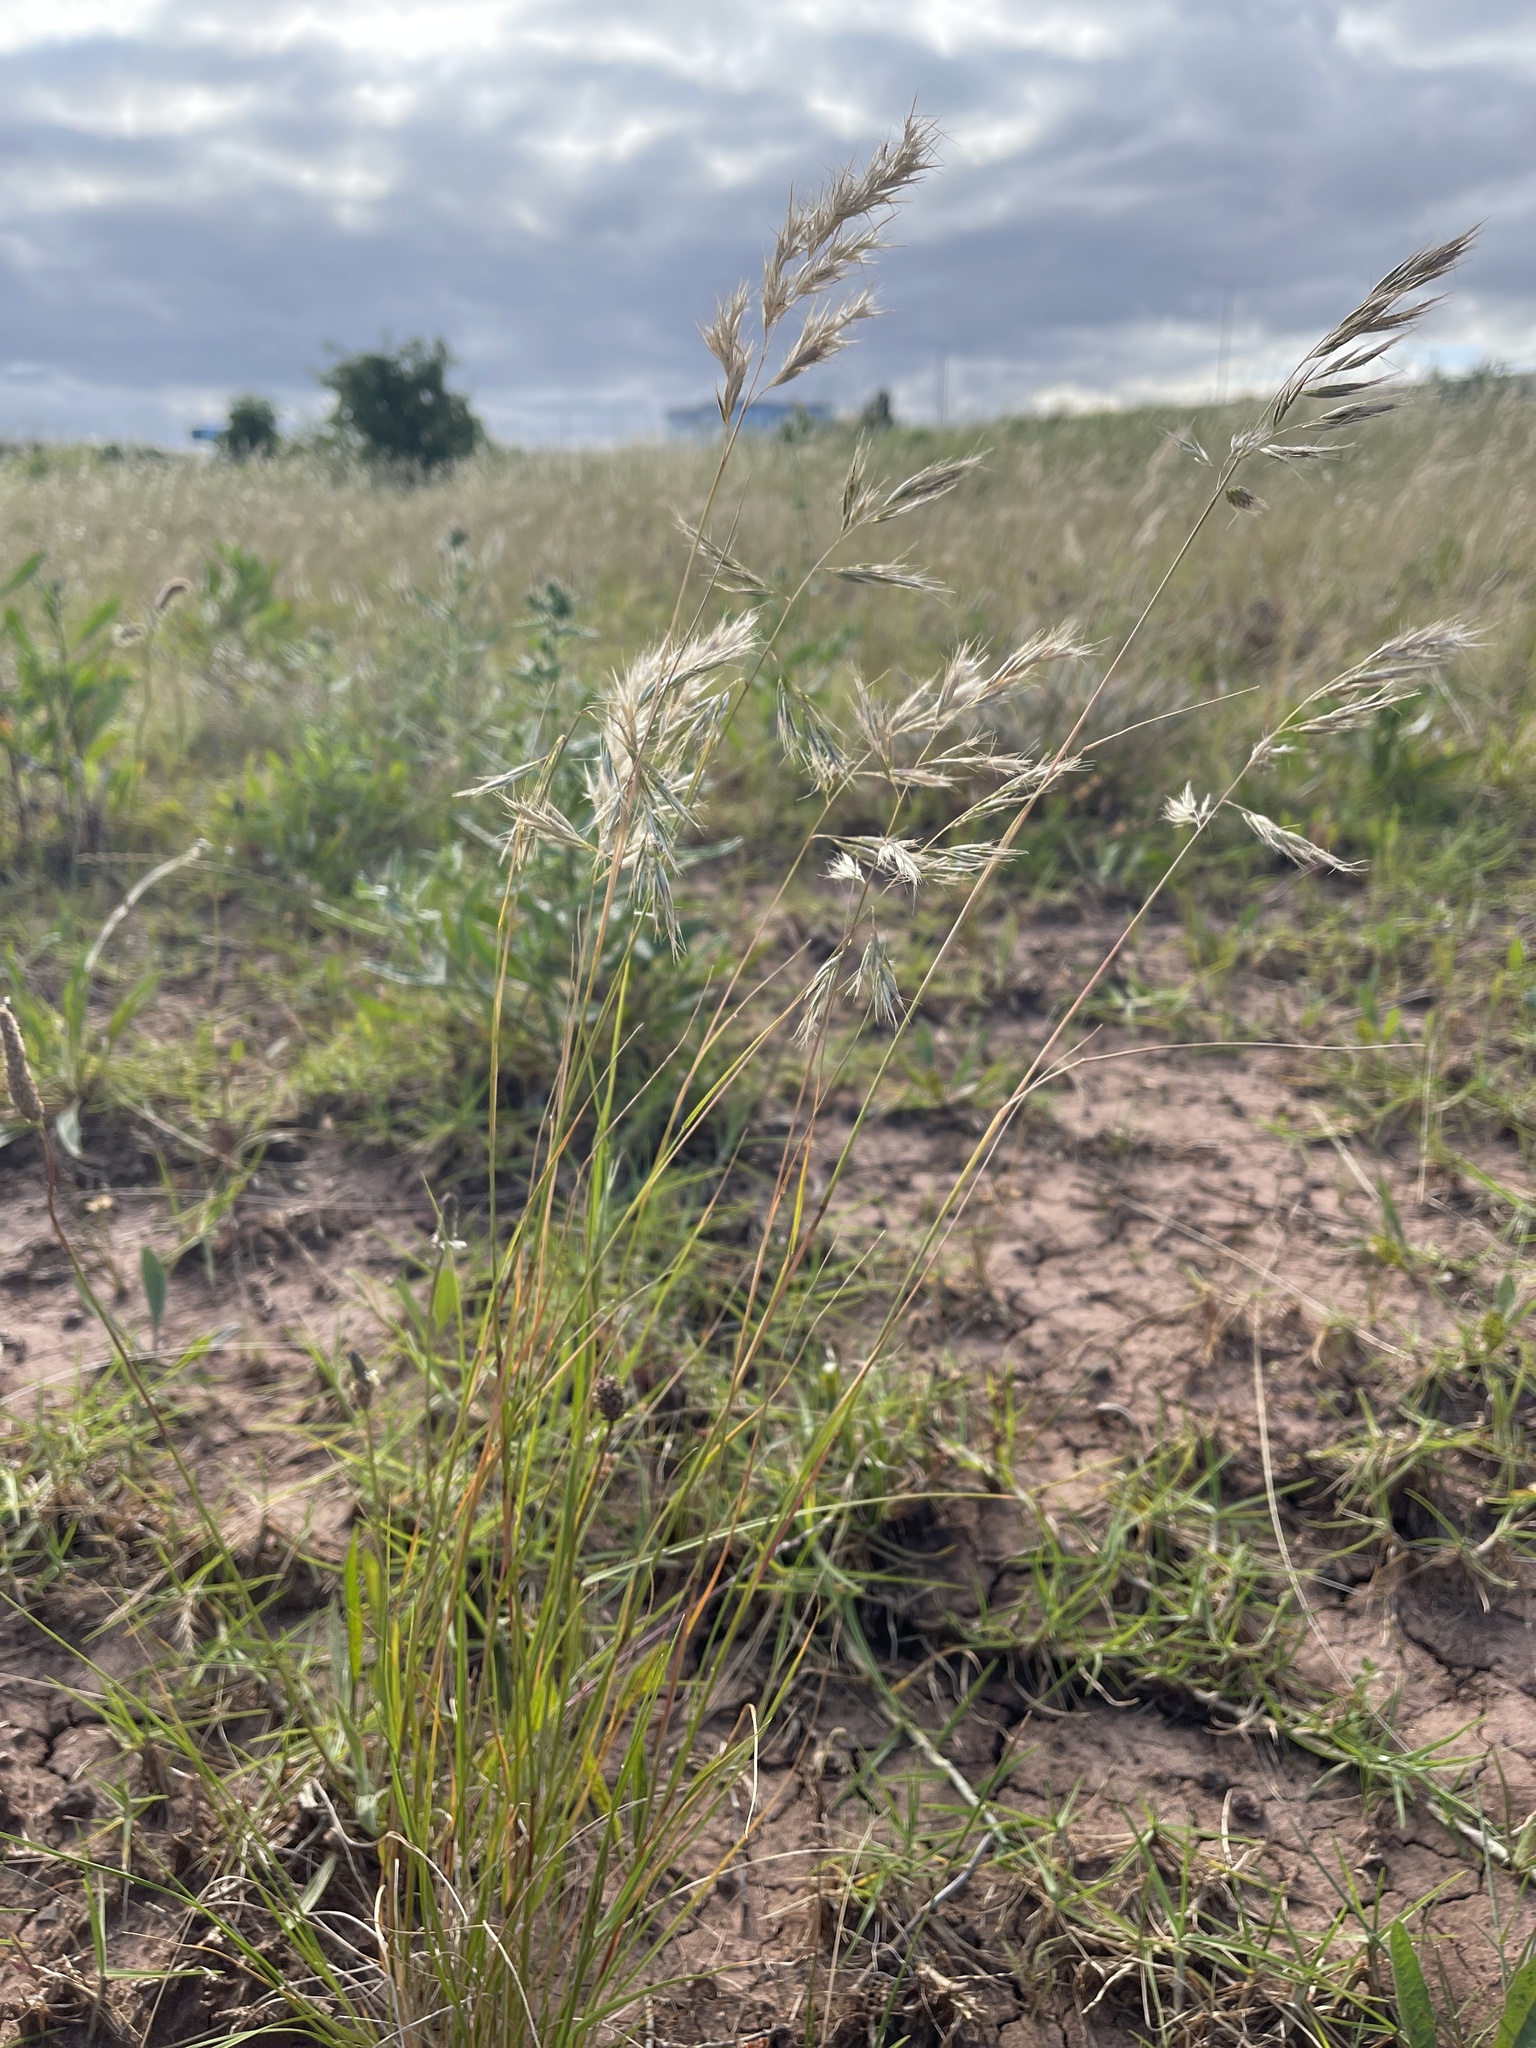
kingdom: Plantae
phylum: Tracheophyta
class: Liliopsida
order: Poales
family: Poaceae
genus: Rytidosperma
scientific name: Rytidosperma setaceum
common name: Small-flower wallaby grass
